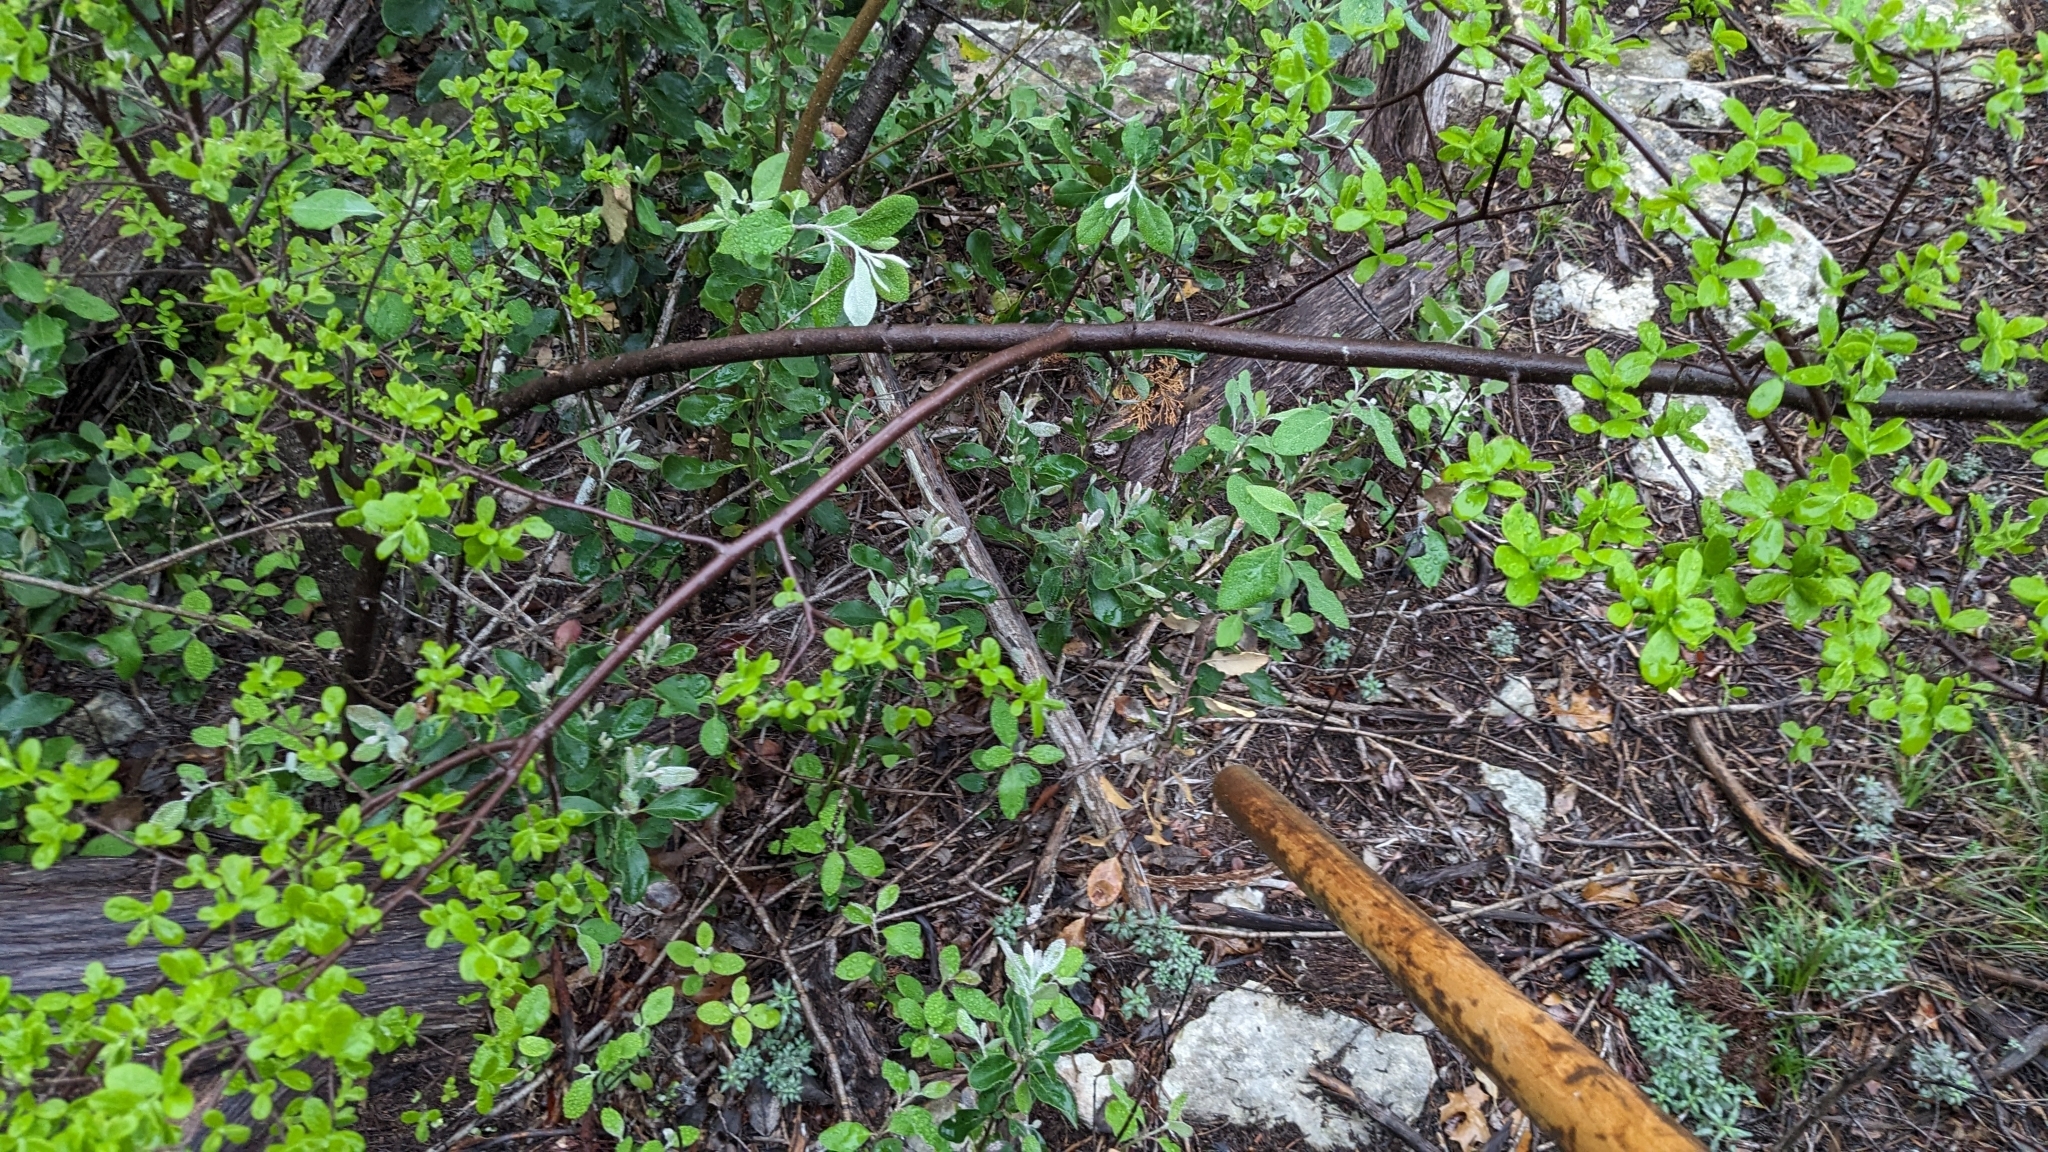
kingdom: Plantae
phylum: Tracheophyta
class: Magnoliopsida
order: Ericales
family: Ebenaceae
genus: Diospyros
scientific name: Diospyros texana
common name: Texas persimmon
